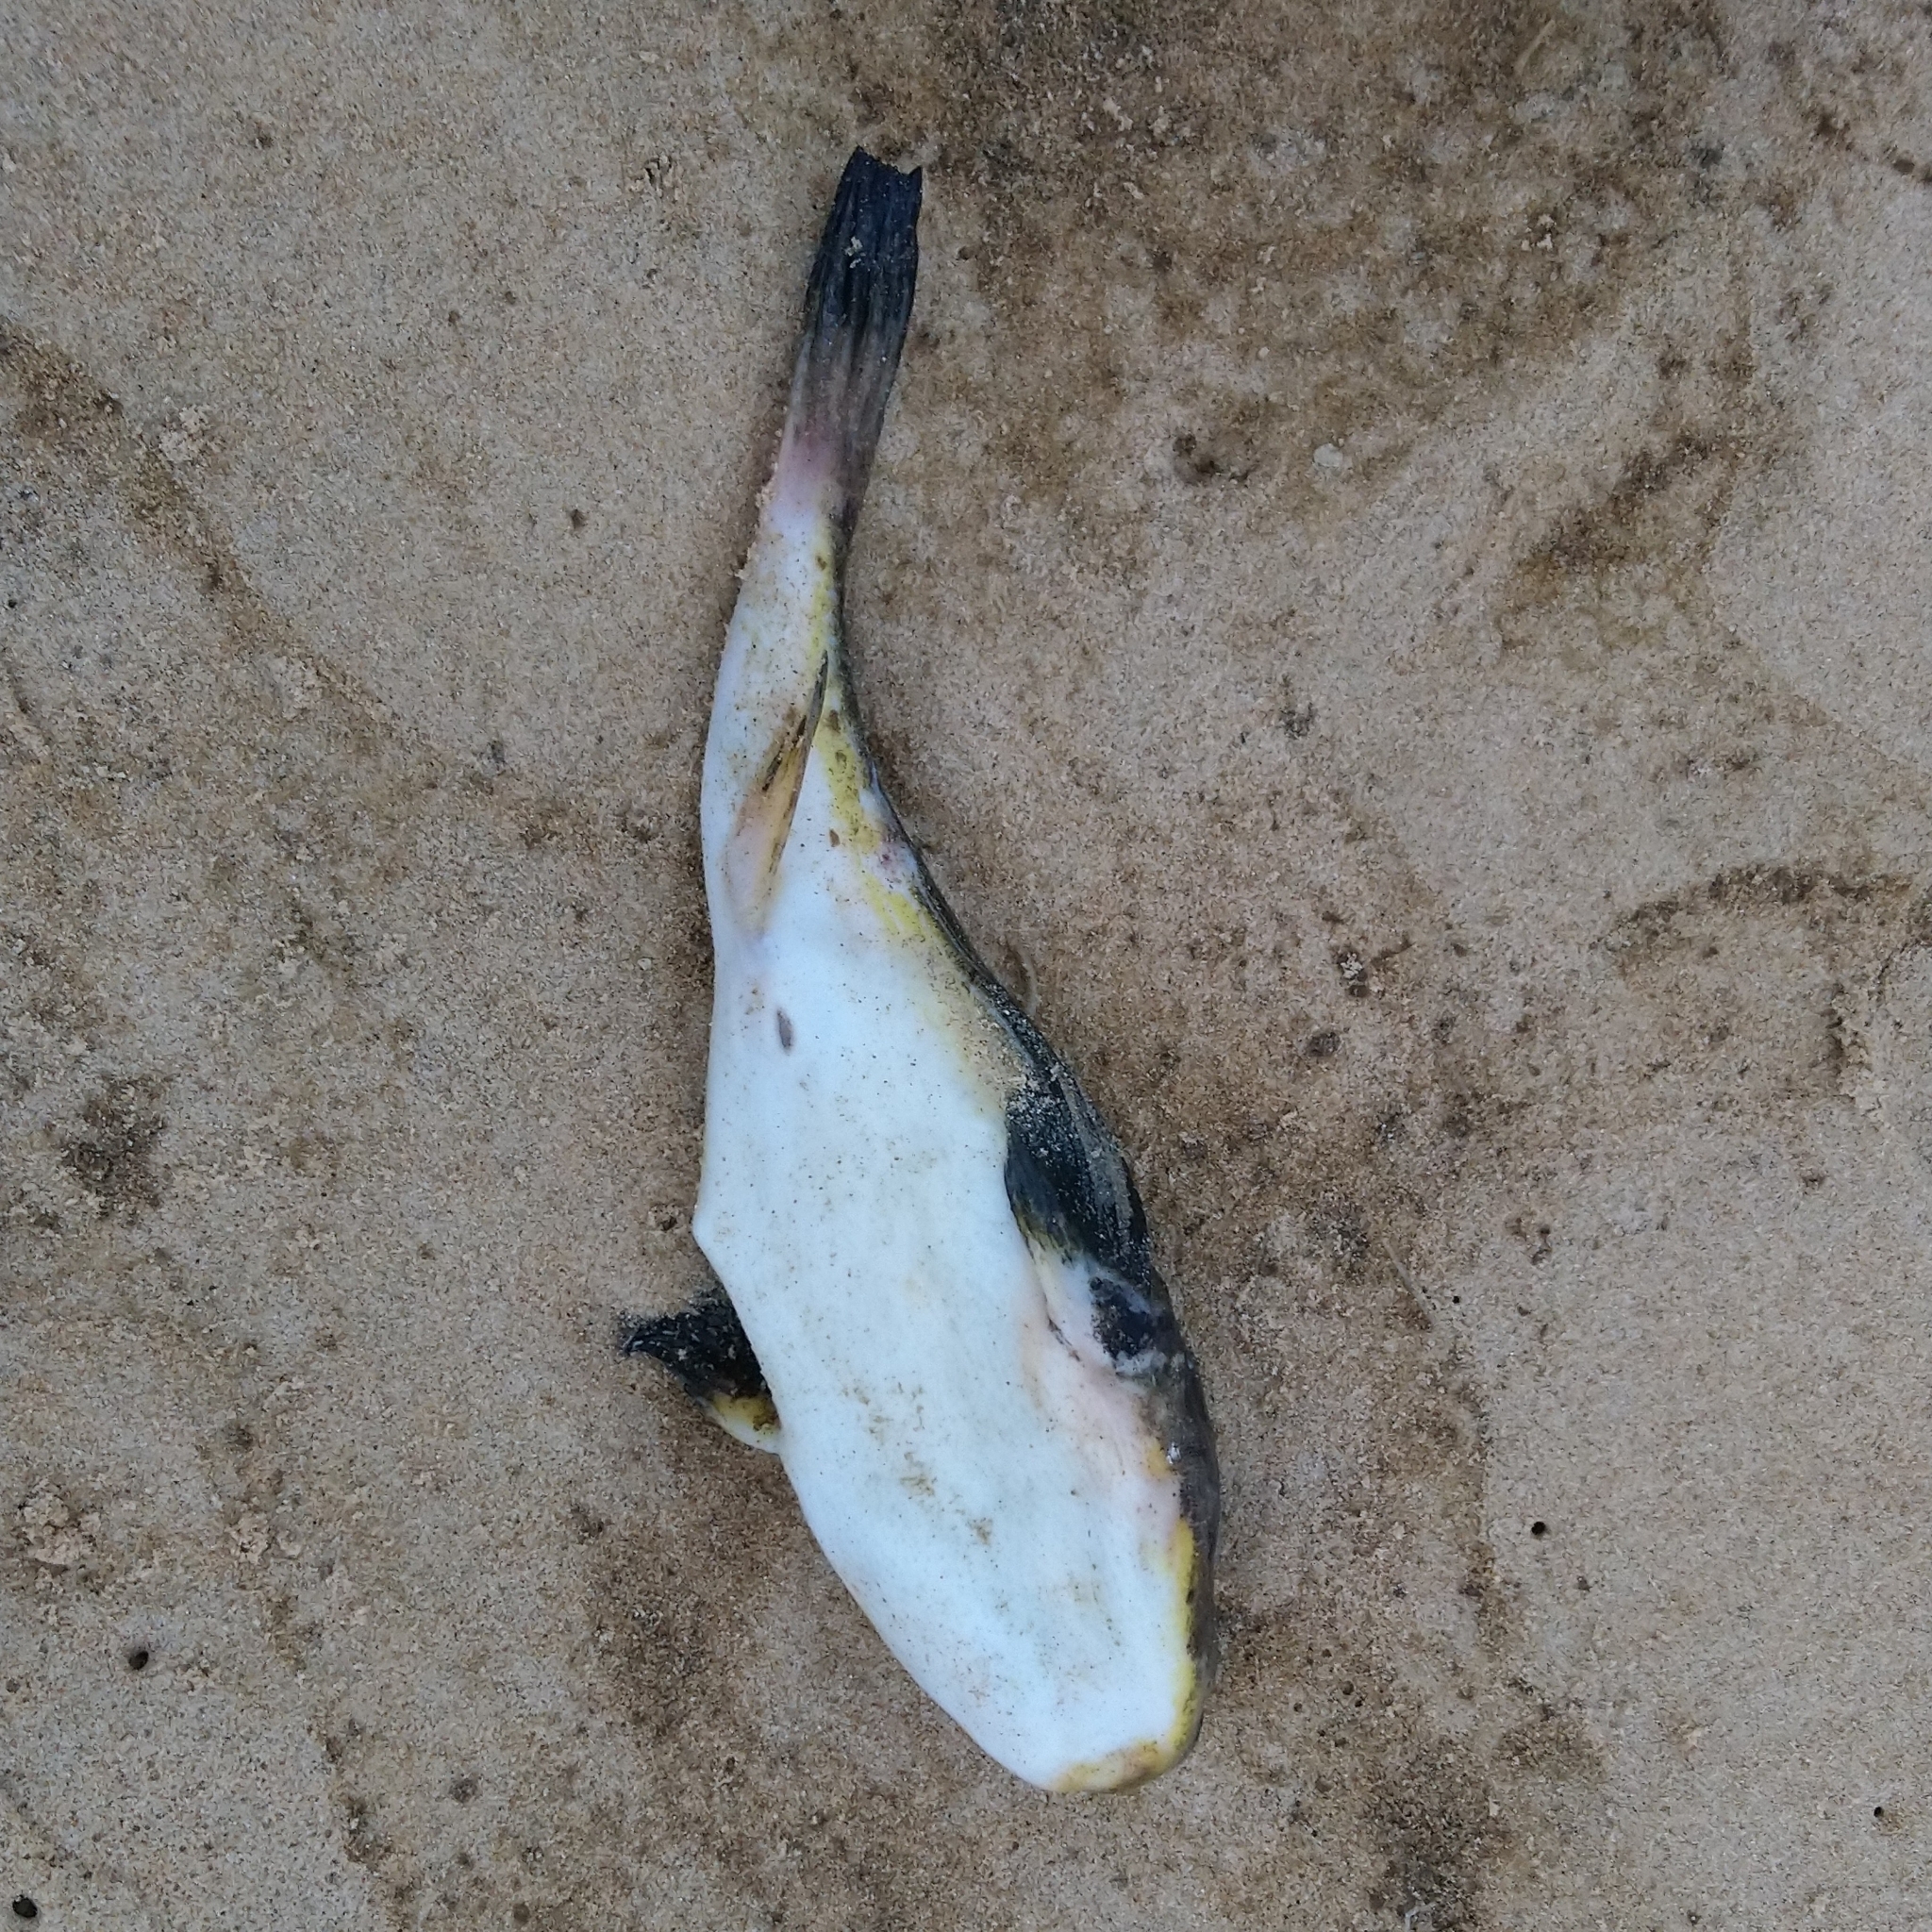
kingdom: Animalia
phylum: Chordata
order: Tetraodontiformes
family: Tetraodontidae
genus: Amblyrhynchote
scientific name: Amblyrhynchote honckenii
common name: Evileye blaasop
